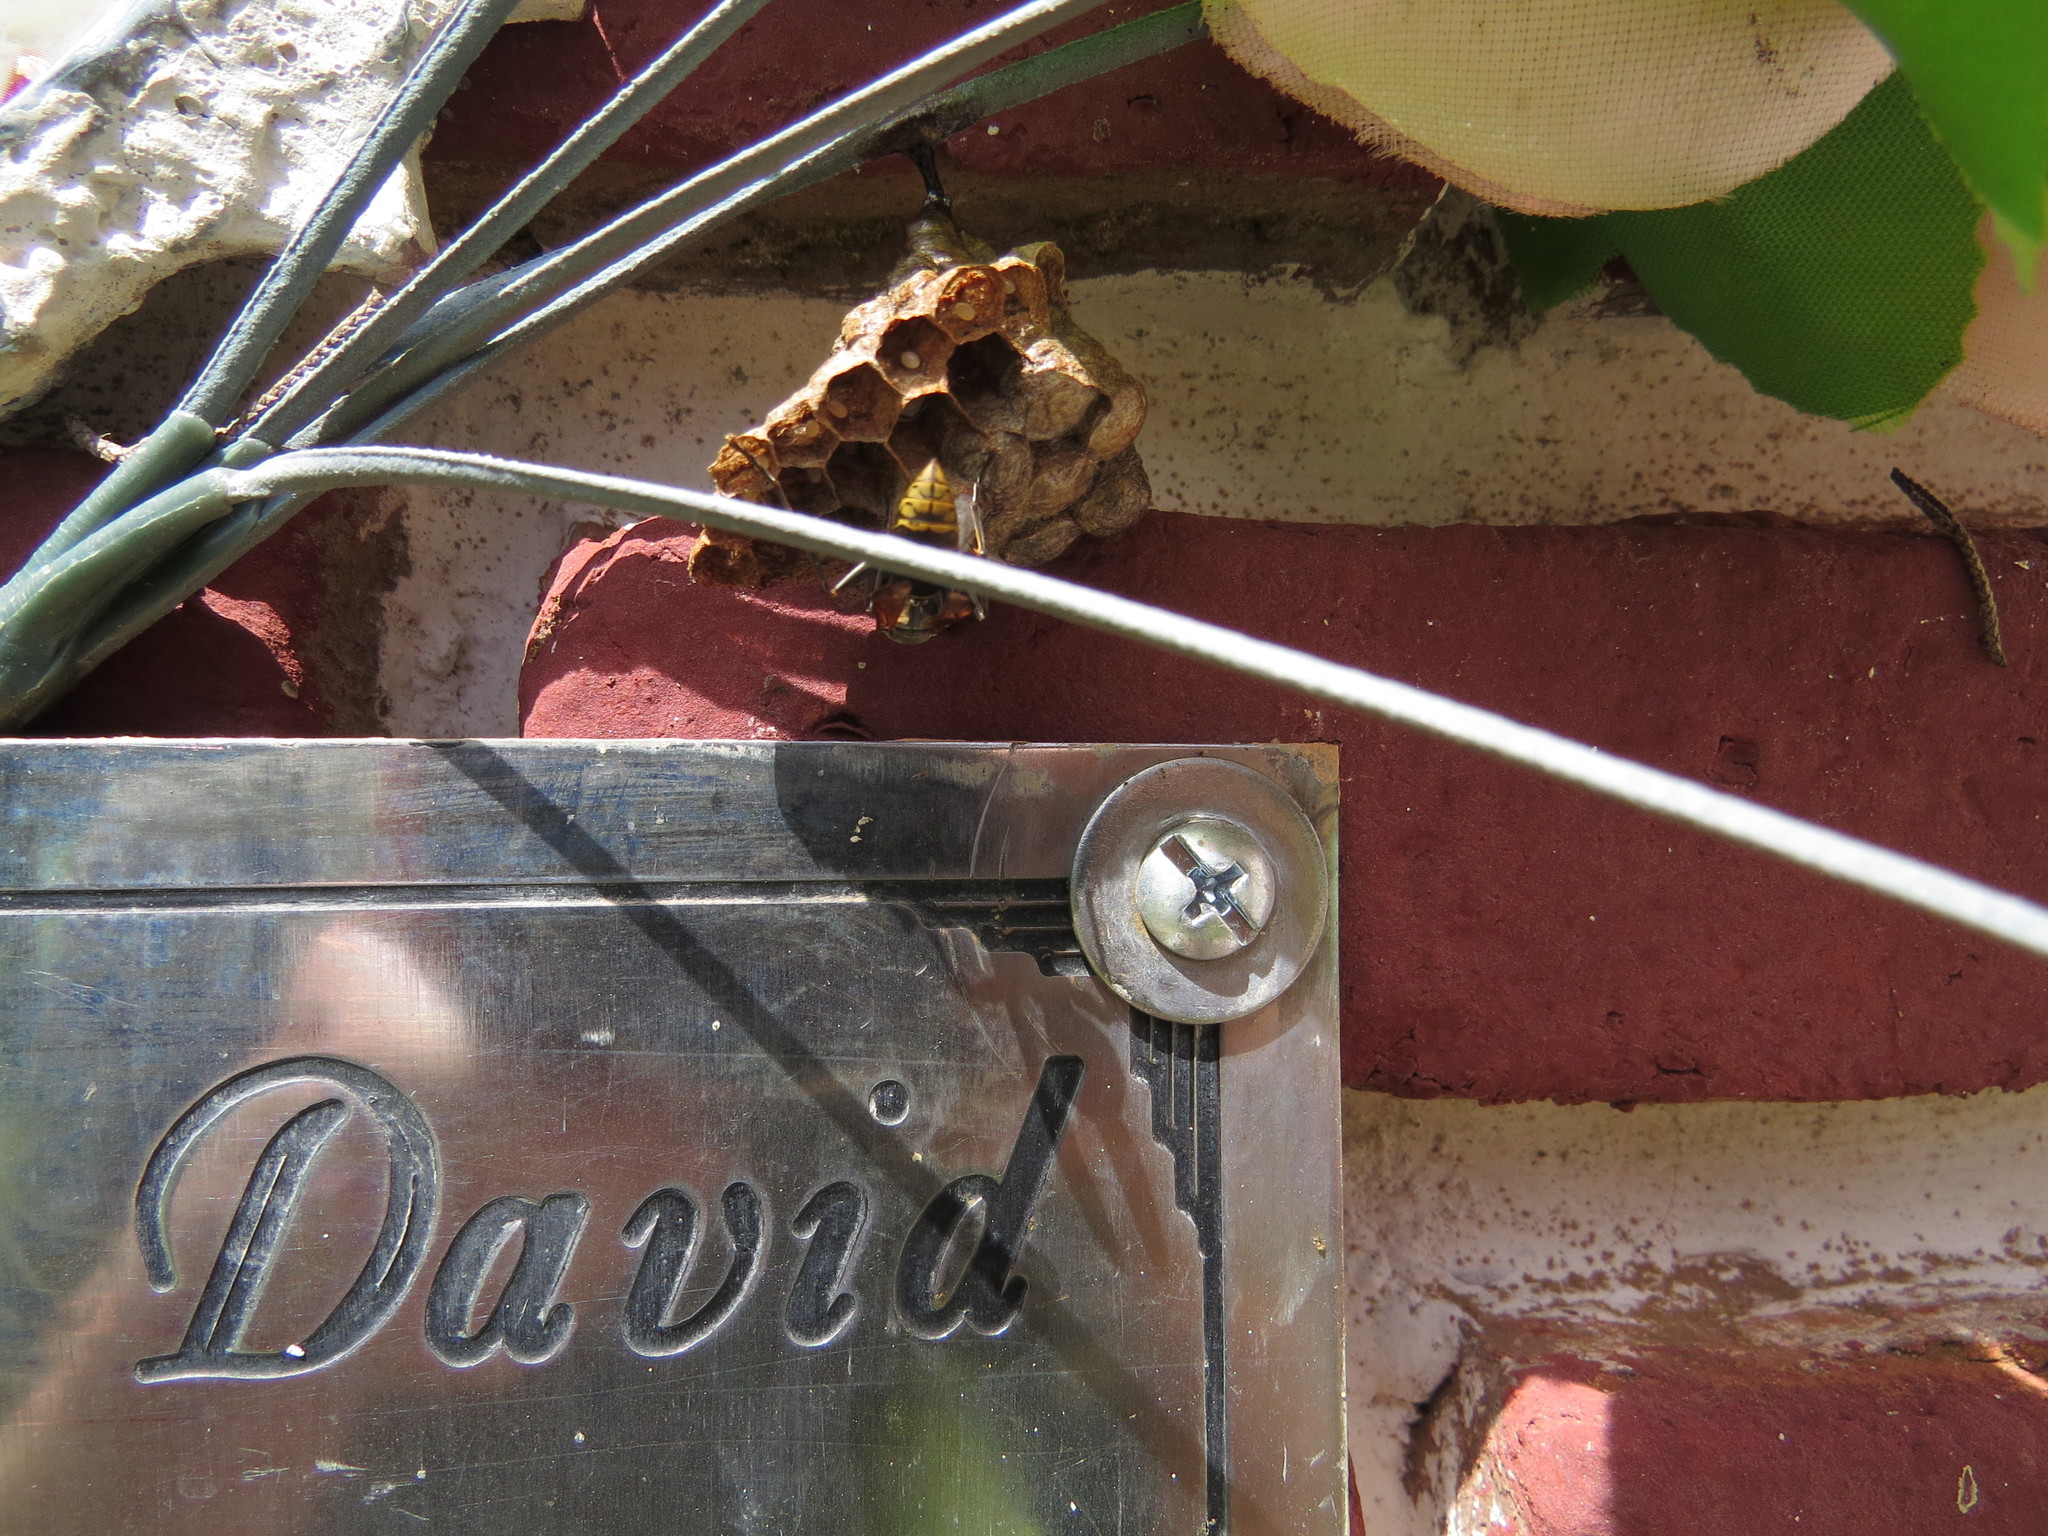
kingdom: Animalia
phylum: Arthropoda
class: Insecta
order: Hymenoptera
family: Eumenidae
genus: Polistes
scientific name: Polistes cinerascens
